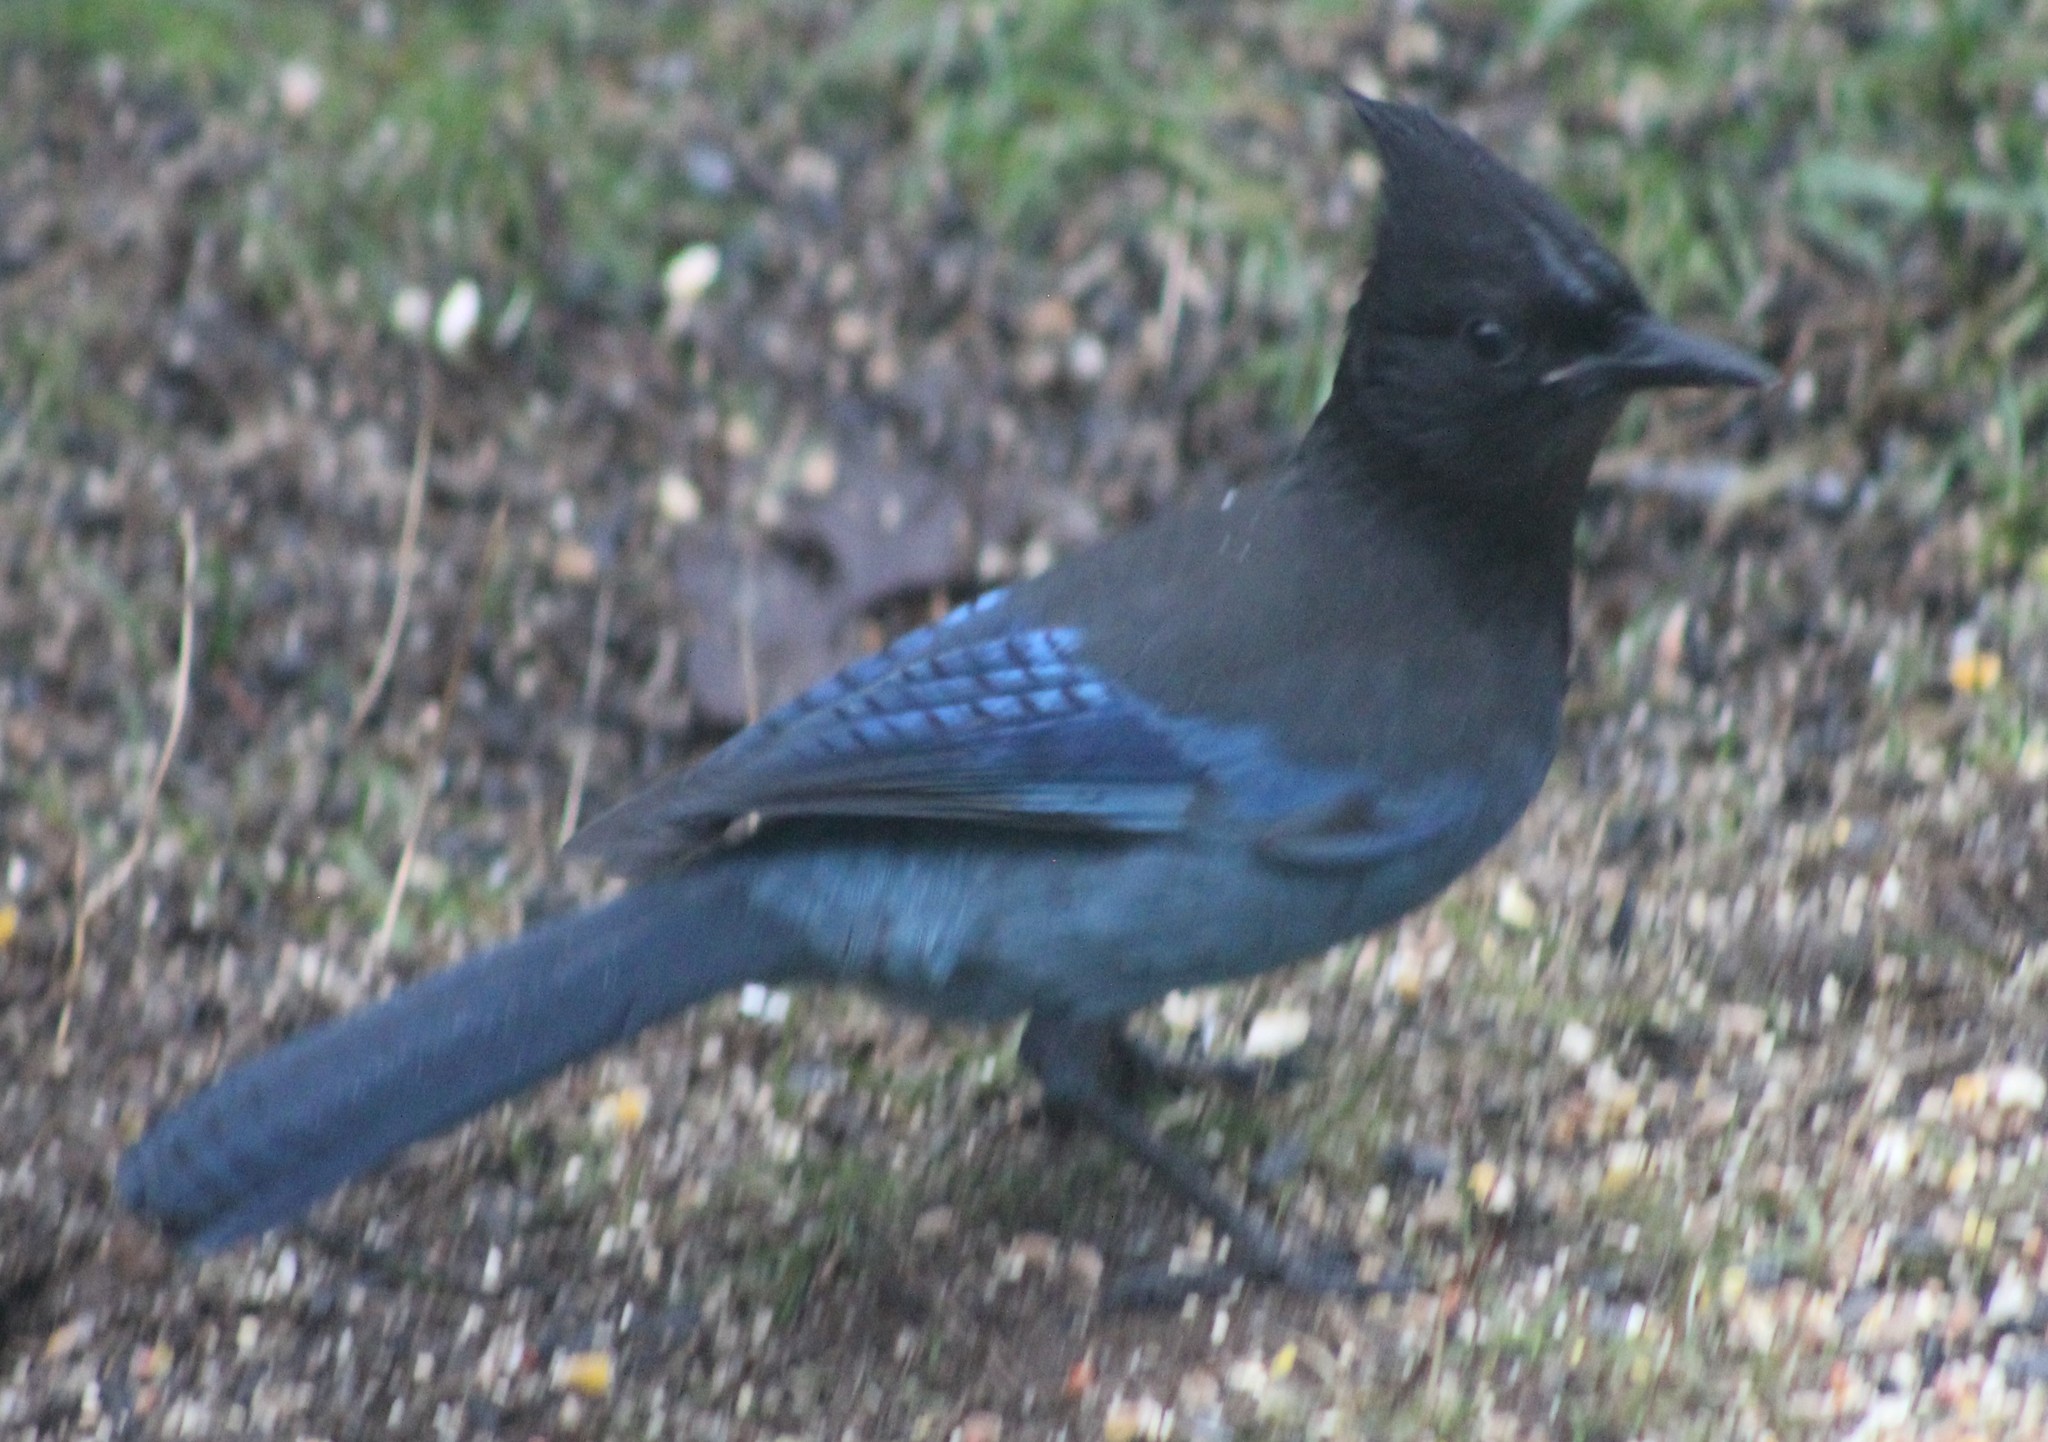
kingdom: Animalia
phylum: Chordata
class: Aves
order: Passeriformes
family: Corvidae
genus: Cyanocitta
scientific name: Cyanocitta stelleri
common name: Steller's jay
